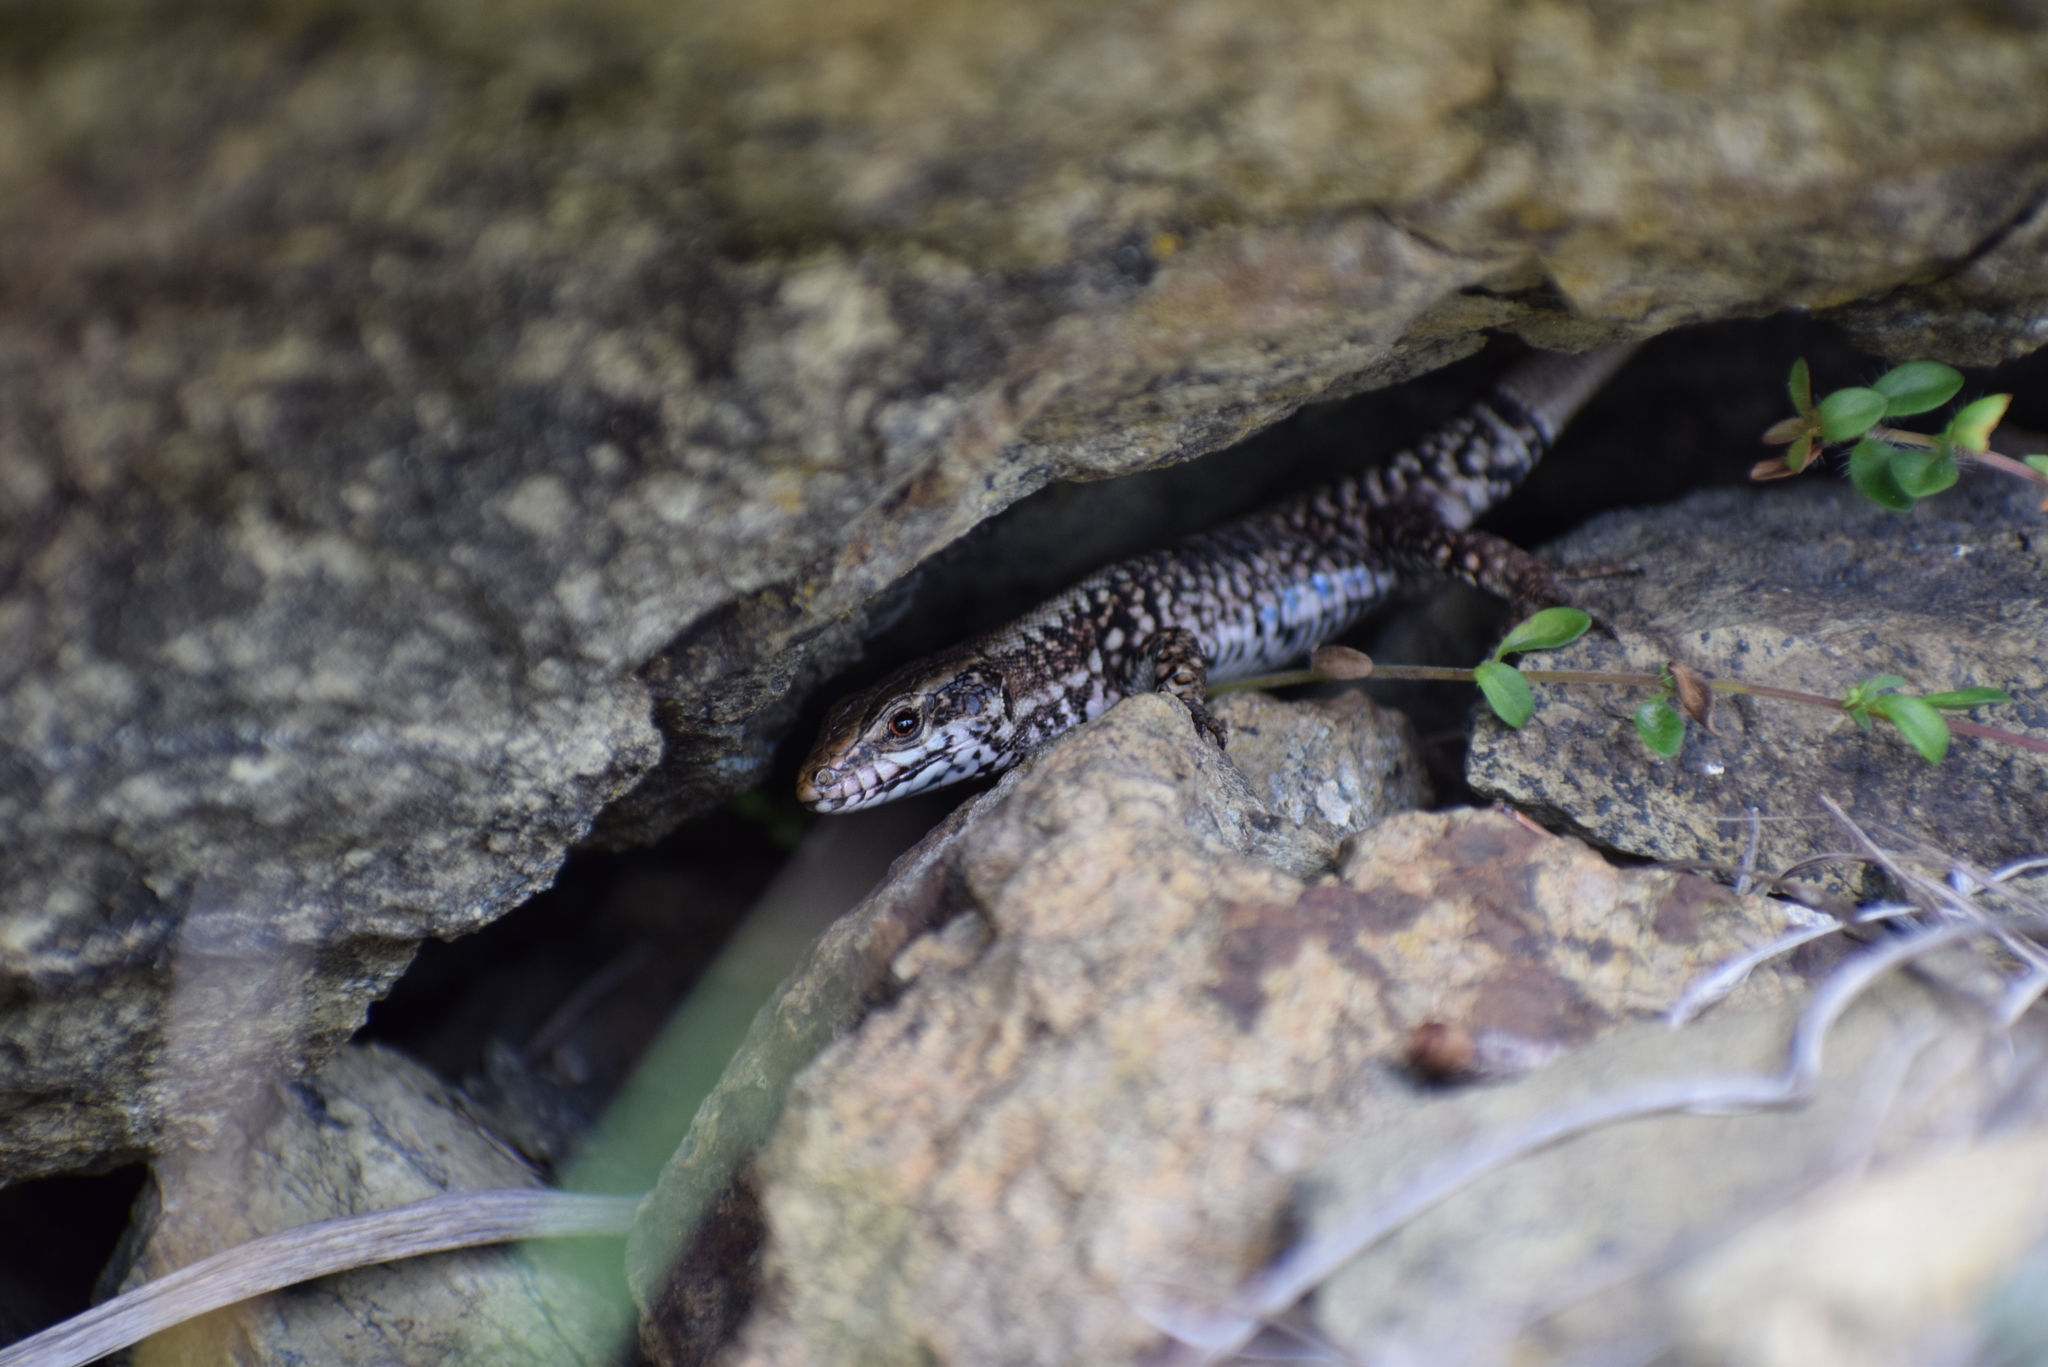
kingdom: Animalia
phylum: Chordata
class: Squamata
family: Lacertidae
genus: Podarcis
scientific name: Podarcis muralis
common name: Common wall lizard
